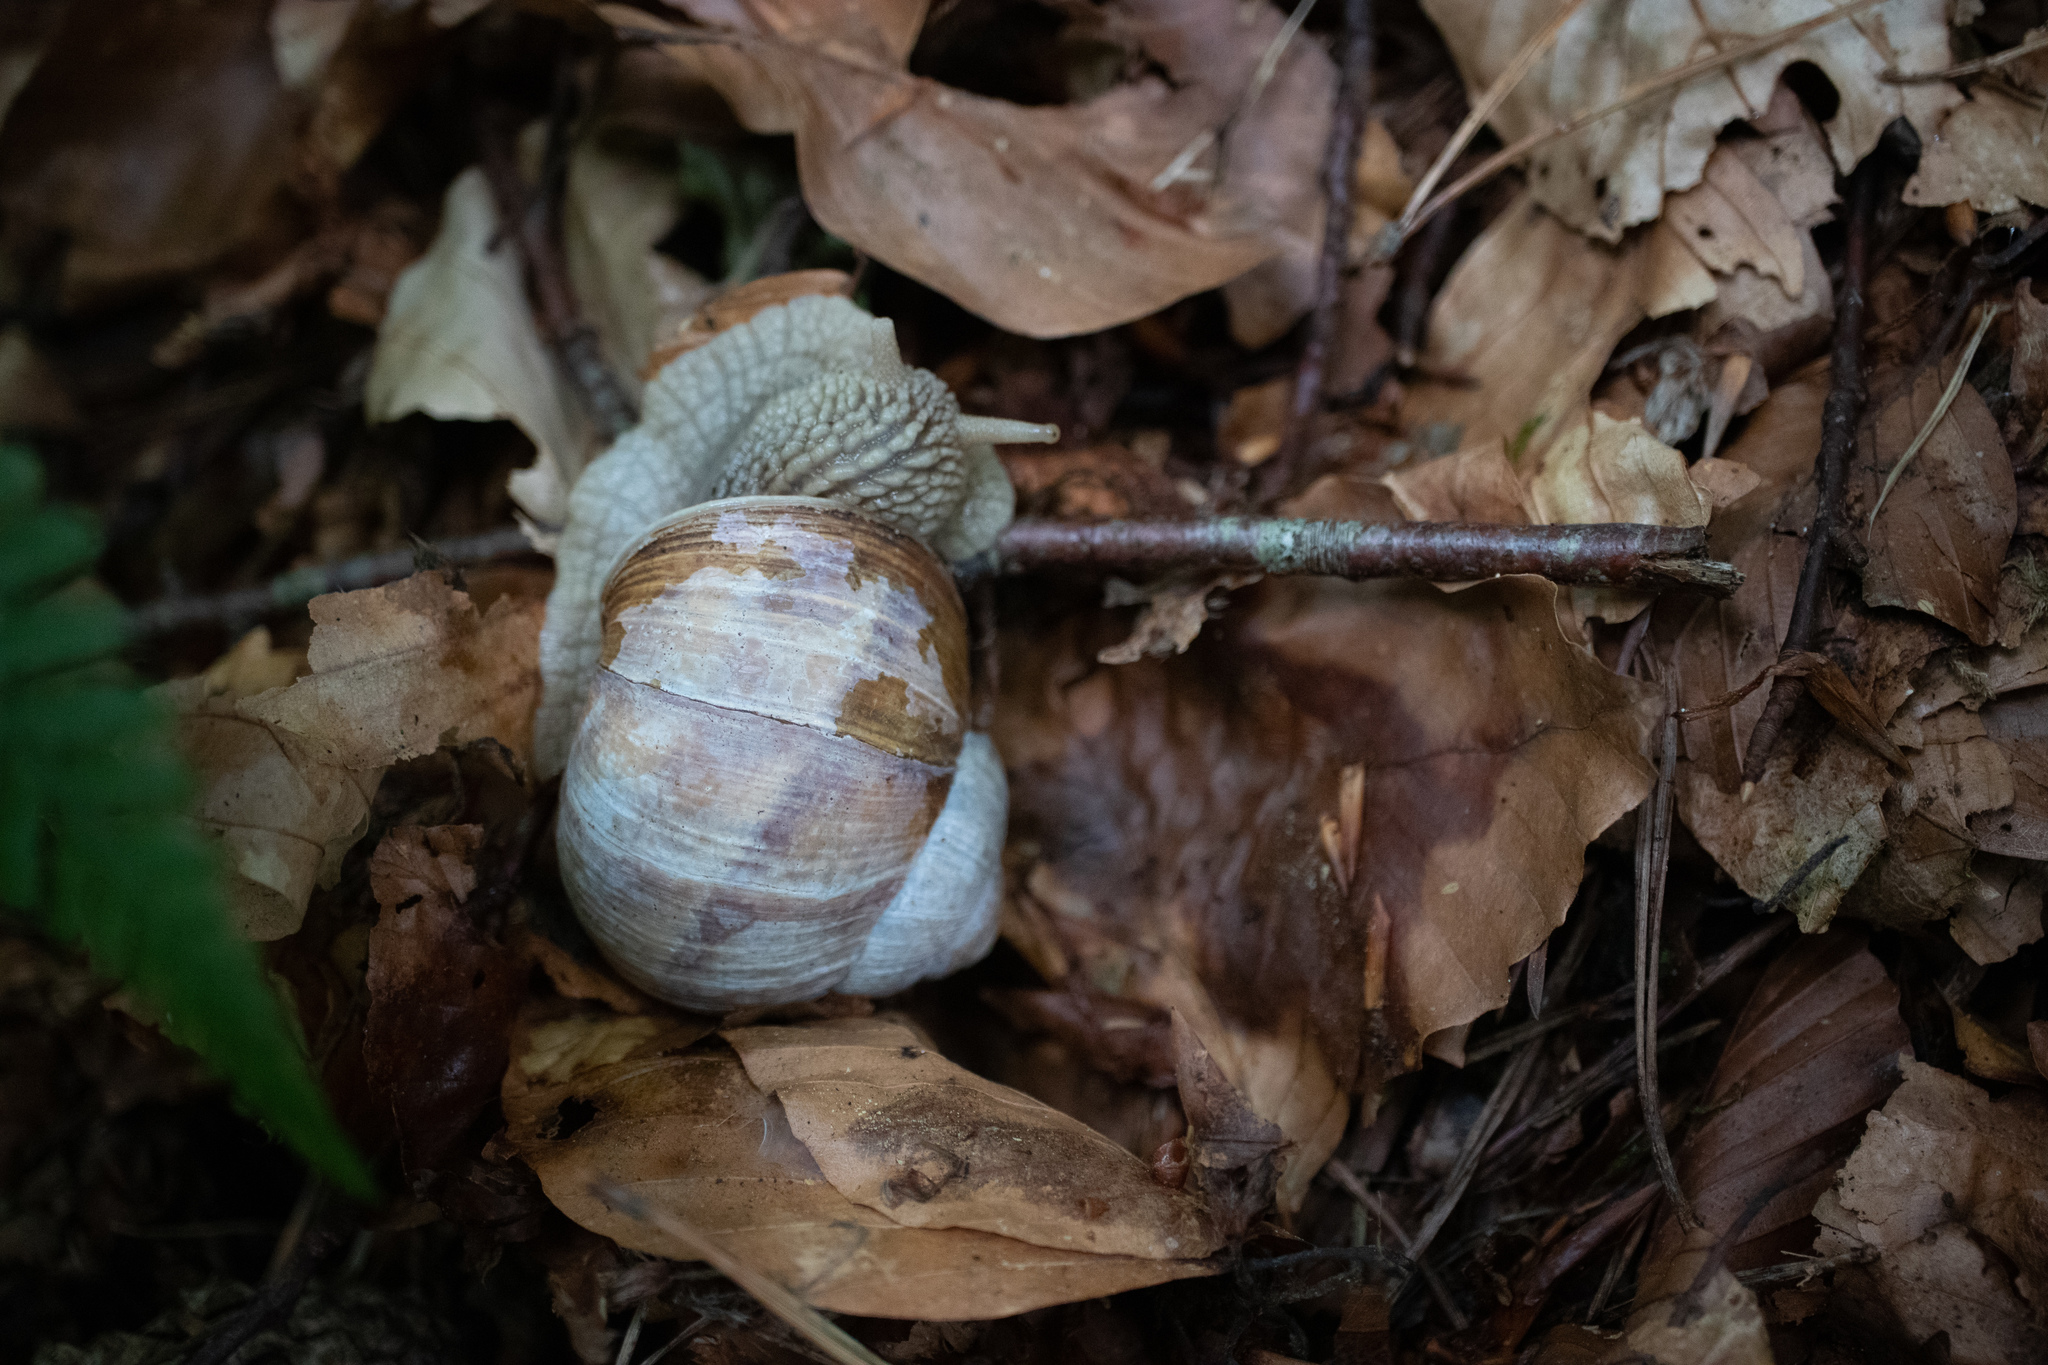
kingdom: Animalia
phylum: Mollusca
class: Gastropoda
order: Stylommatophora
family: Helicidae
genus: Helix
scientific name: Helix pomatia
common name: Roman snail
